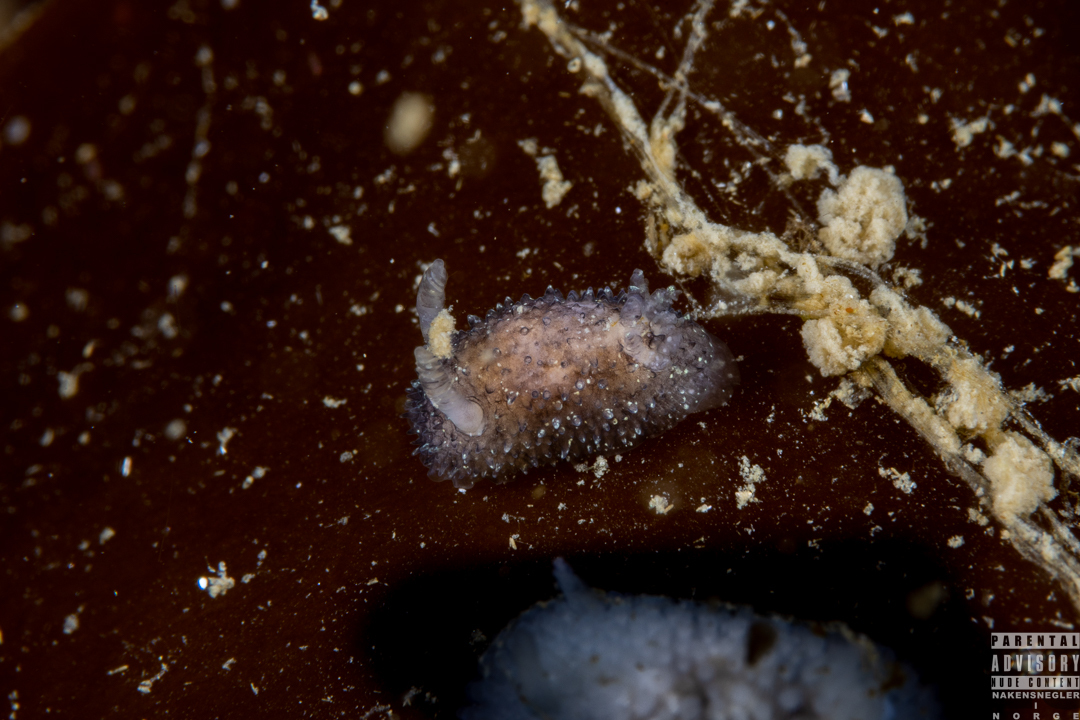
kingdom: Animalia
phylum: Mollusca
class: Gastropoda
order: Nudibranchia
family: Onchidorididae
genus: Acanthodoris
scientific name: Acanthodoris pilosa
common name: Hairy spiny doris
